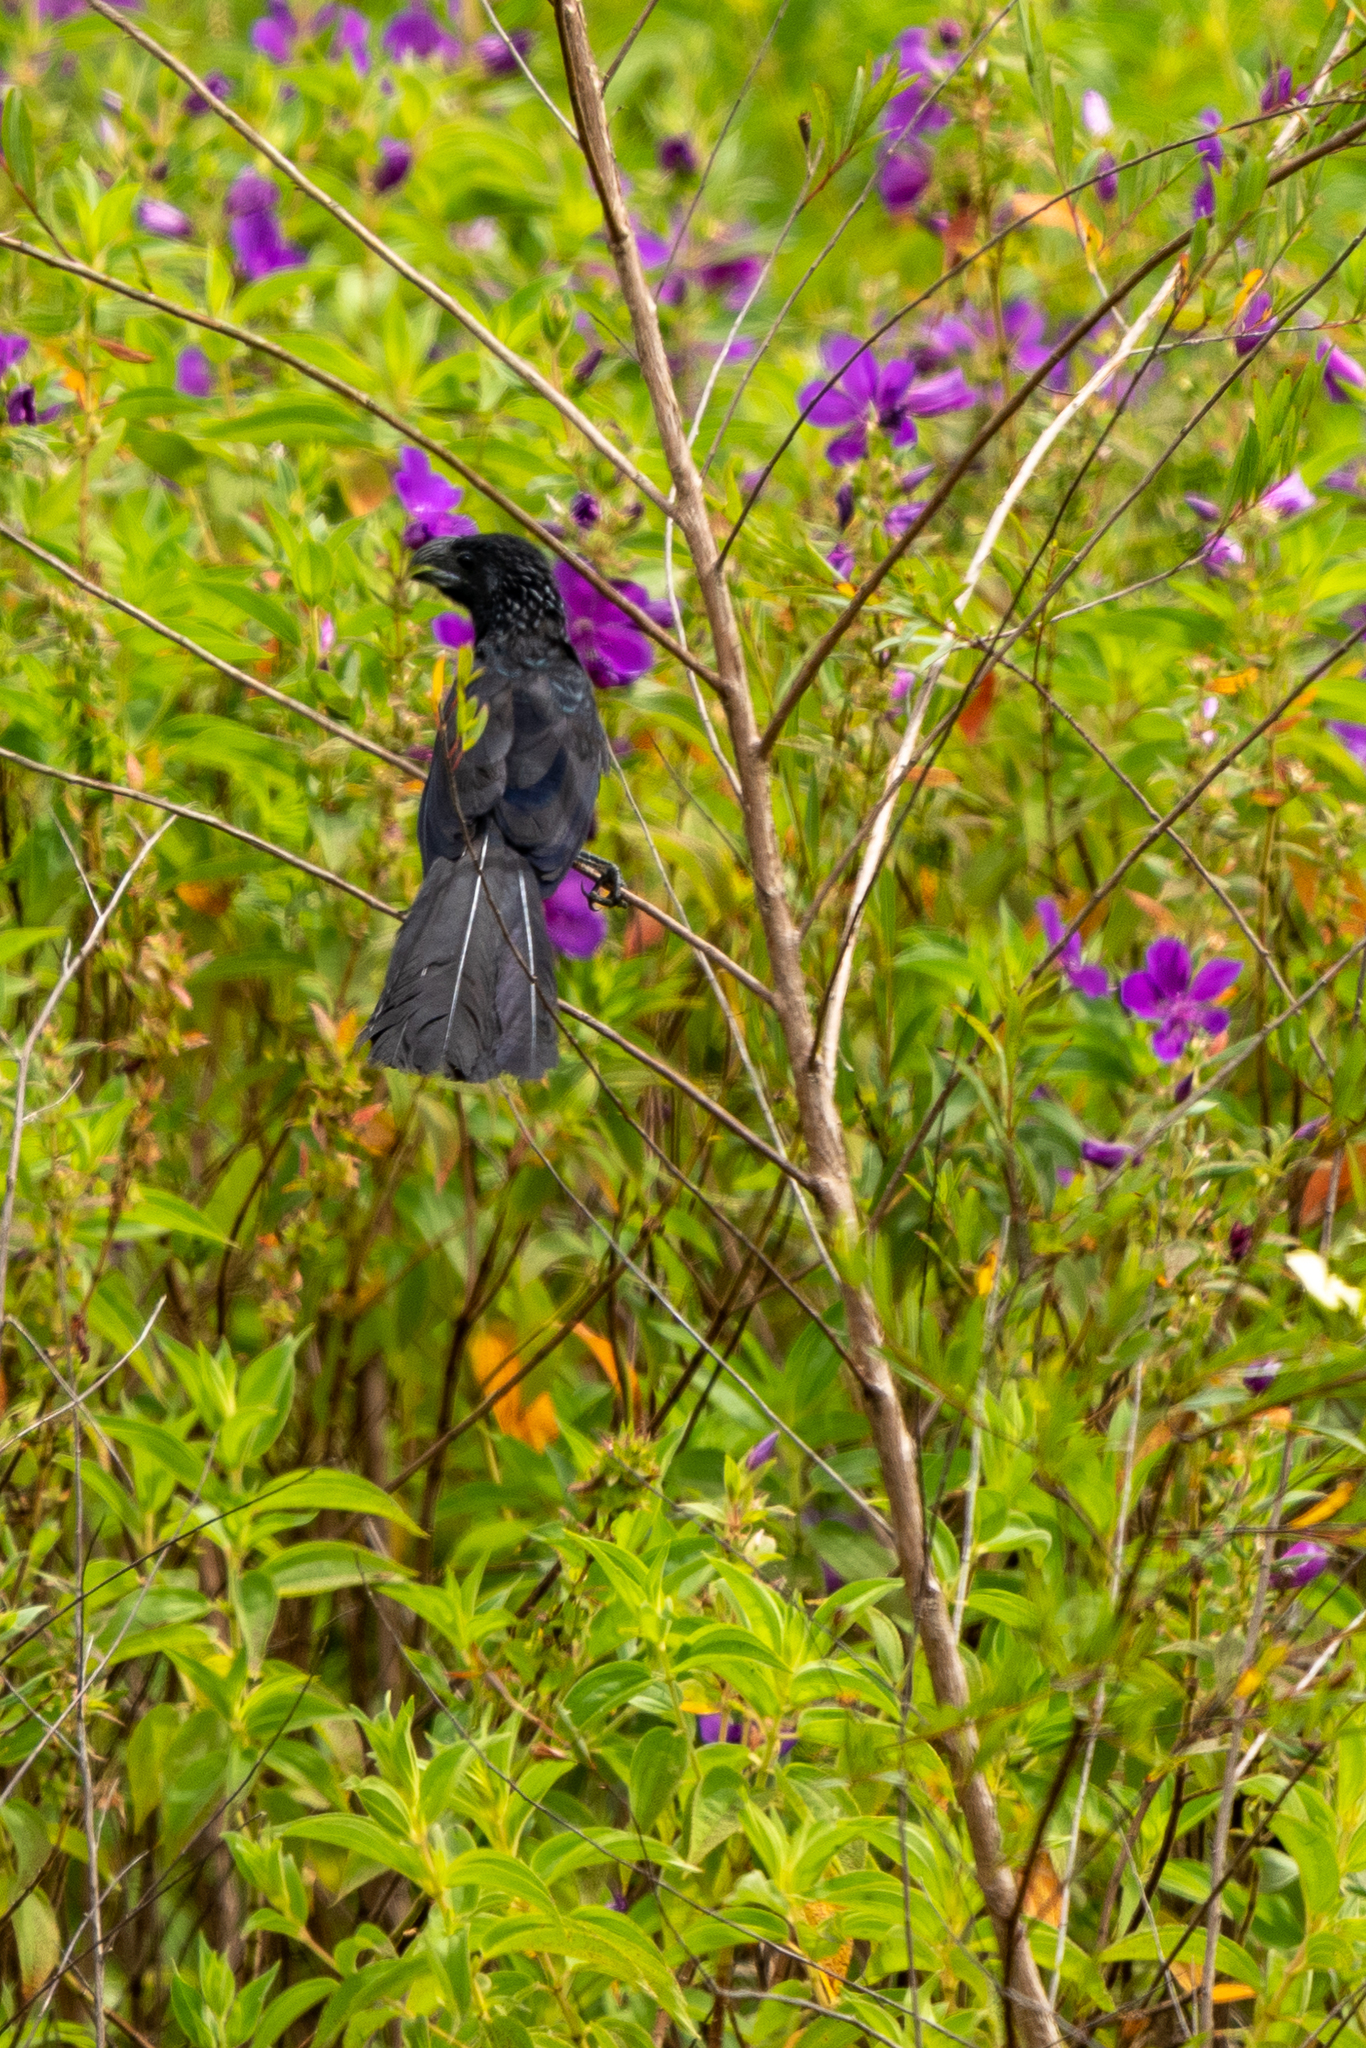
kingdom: Animalia
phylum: Chordata
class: Aves
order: Cuculiformes
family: Cuculidae
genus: Crotophaga
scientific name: Crotophaga sulcirostris
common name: Groove-billed ani
